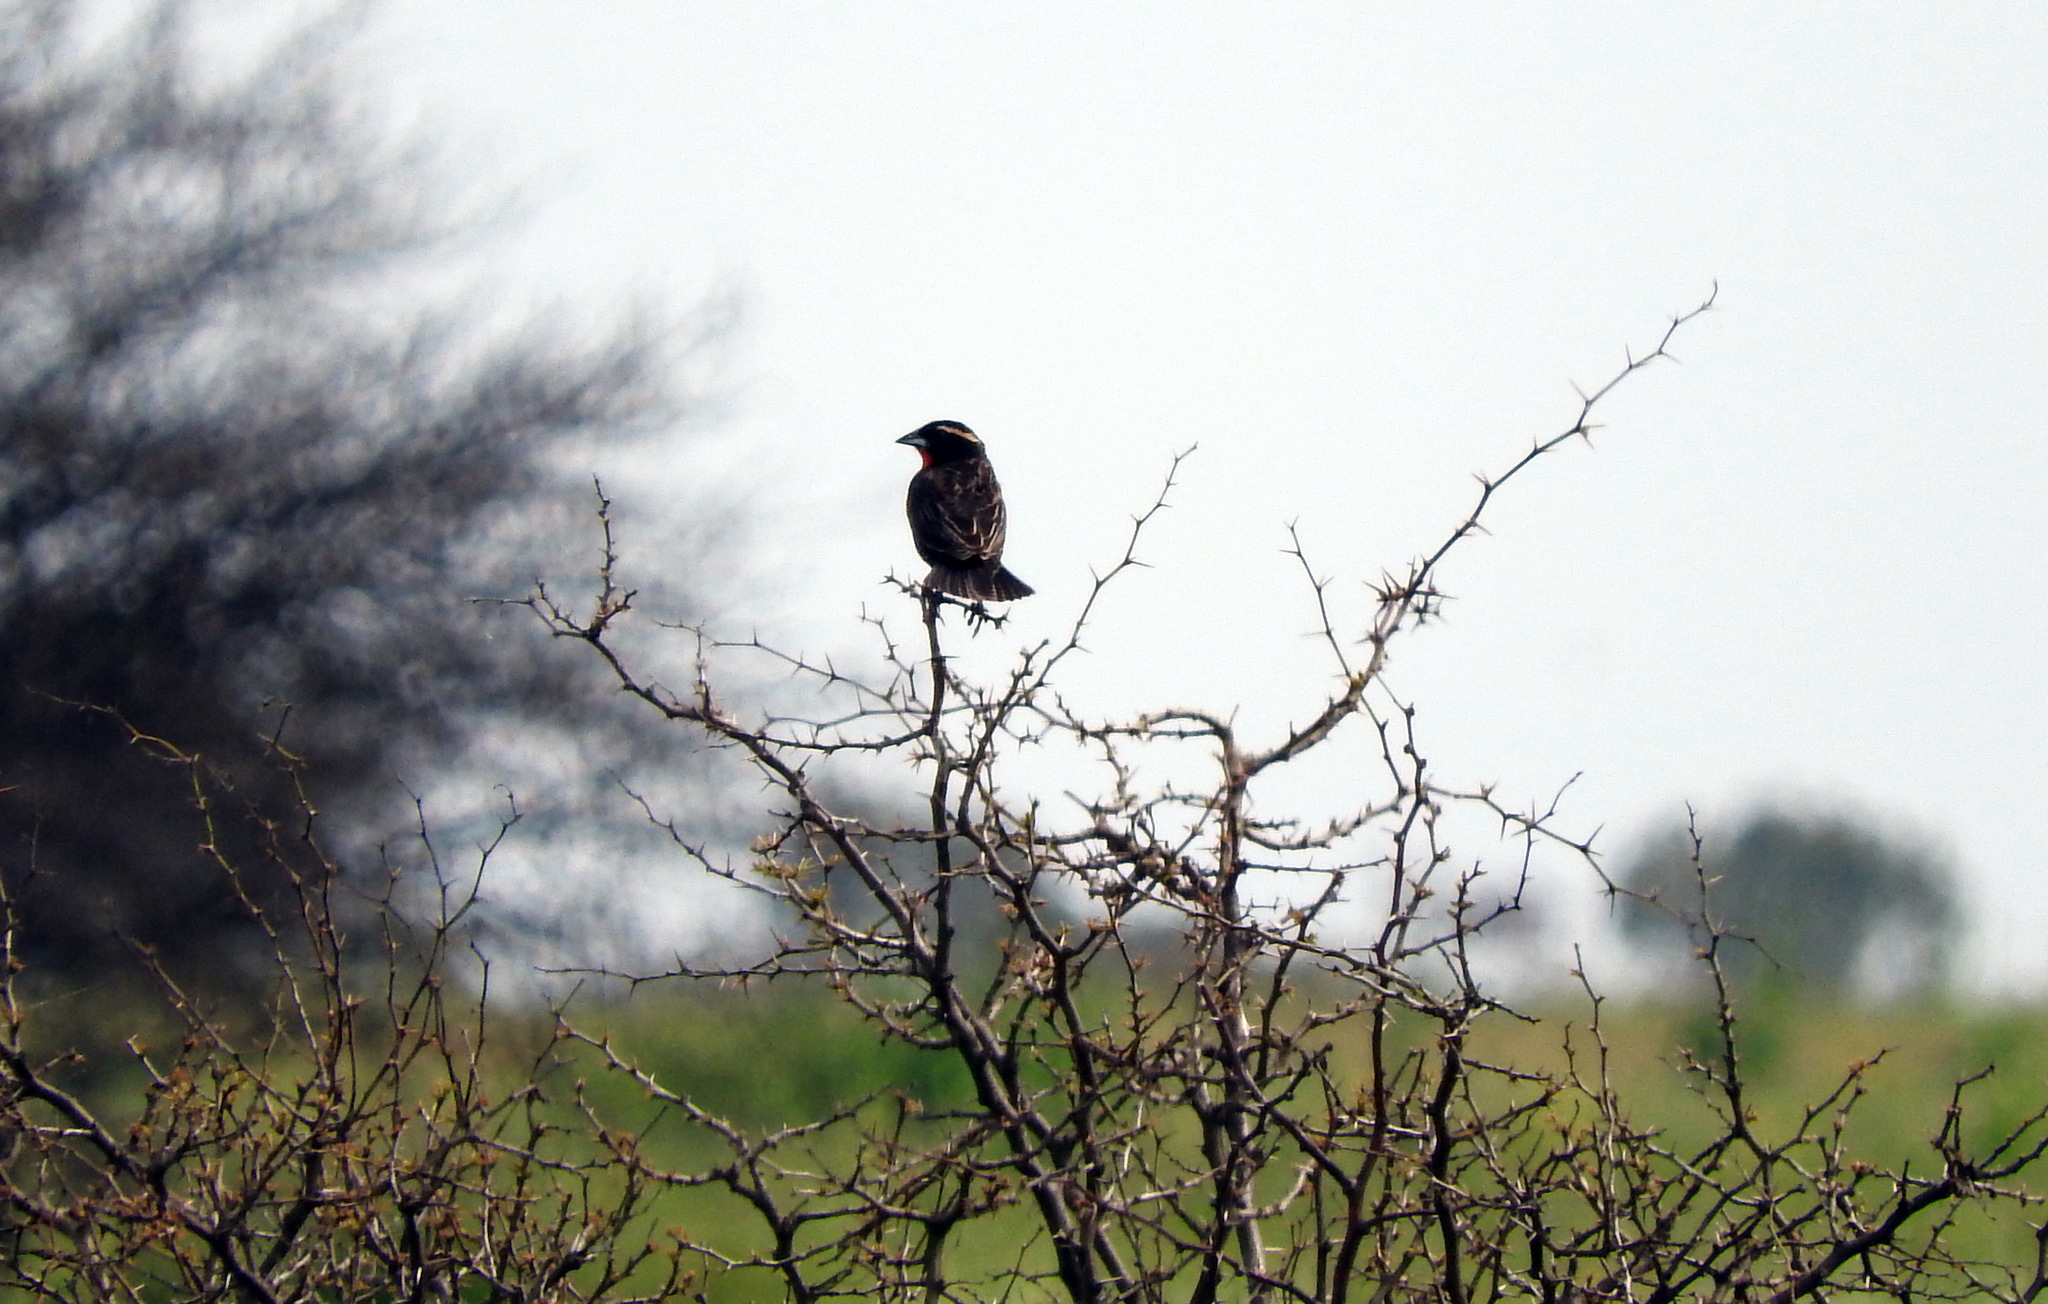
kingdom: Animalia
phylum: Chordata
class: Aves
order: Passeriformes
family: Icteridae
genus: Sturnella
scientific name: Sturnella superciliaris
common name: White-browed blackbird
